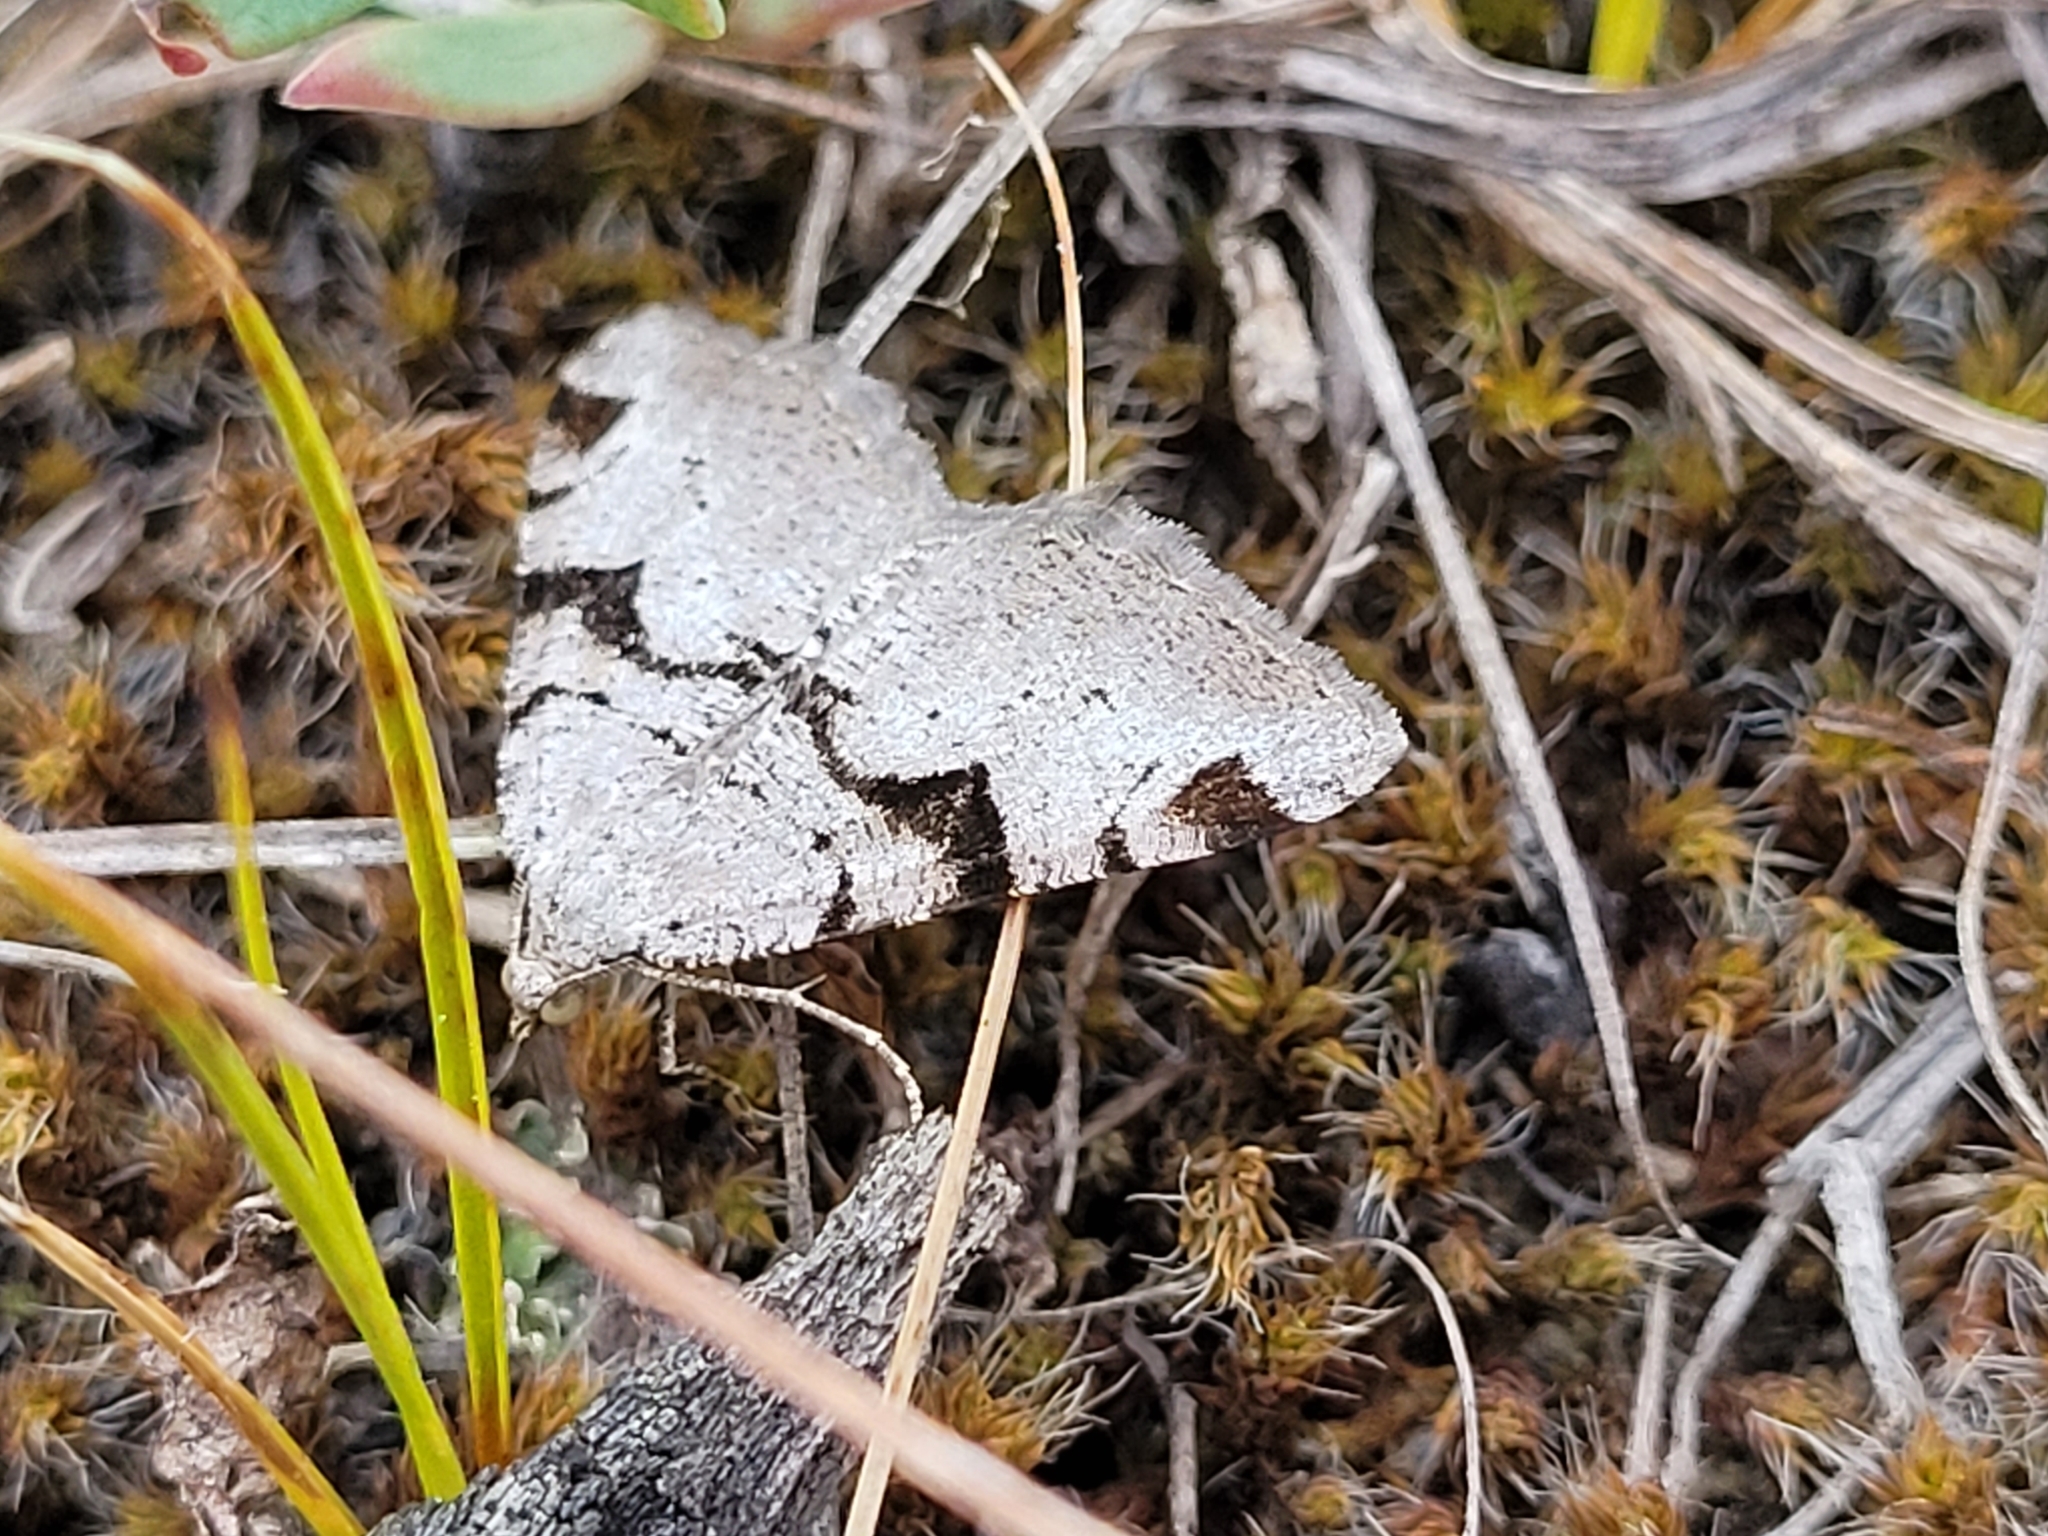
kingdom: Animalia
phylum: Arthropoda
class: Insecta
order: Lepidoptera
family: Geometridae
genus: Macaria
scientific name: Macaria bitactata
